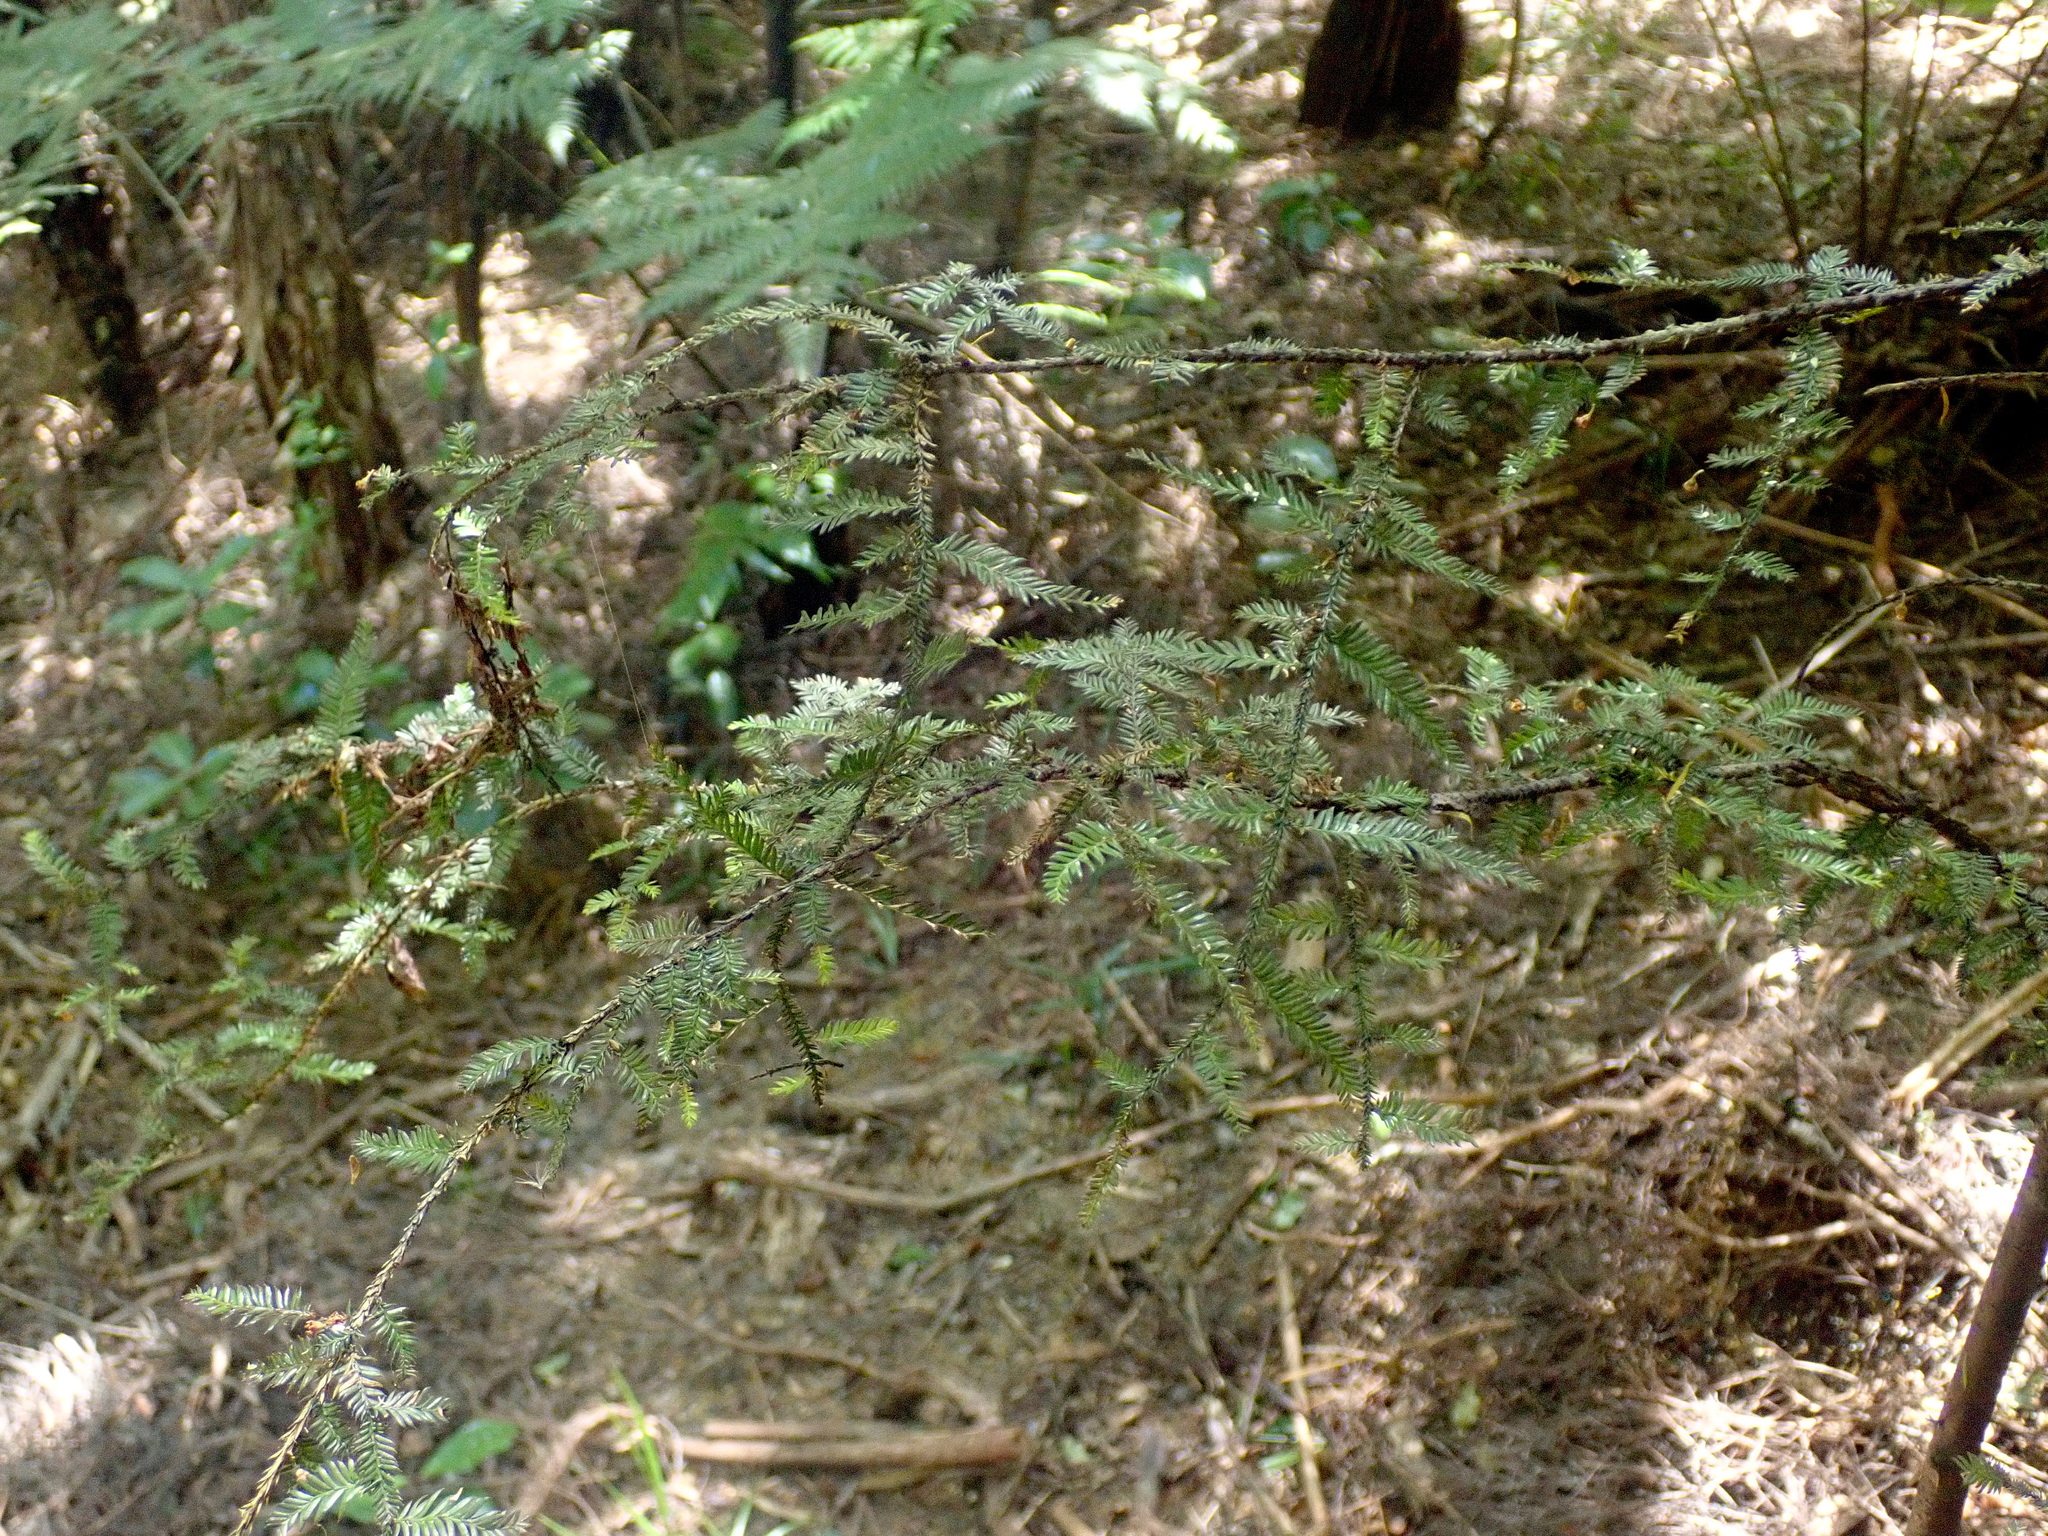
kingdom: Plantae
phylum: Tracheophyta
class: Pinopsida
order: Pinales
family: Podocarpaceae
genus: Dacrycarpus
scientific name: Dacrycarpus dacrydioides
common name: White pine
